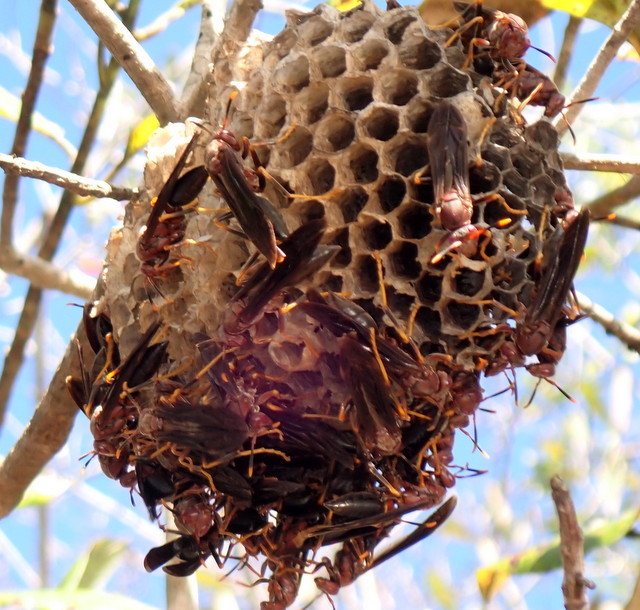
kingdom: Animalia
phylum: Arthropoda
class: Insecta
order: Hymenoptera
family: Eumenidae
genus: Polistes
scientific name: Polistes annularis
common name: Ringed paper wasp
